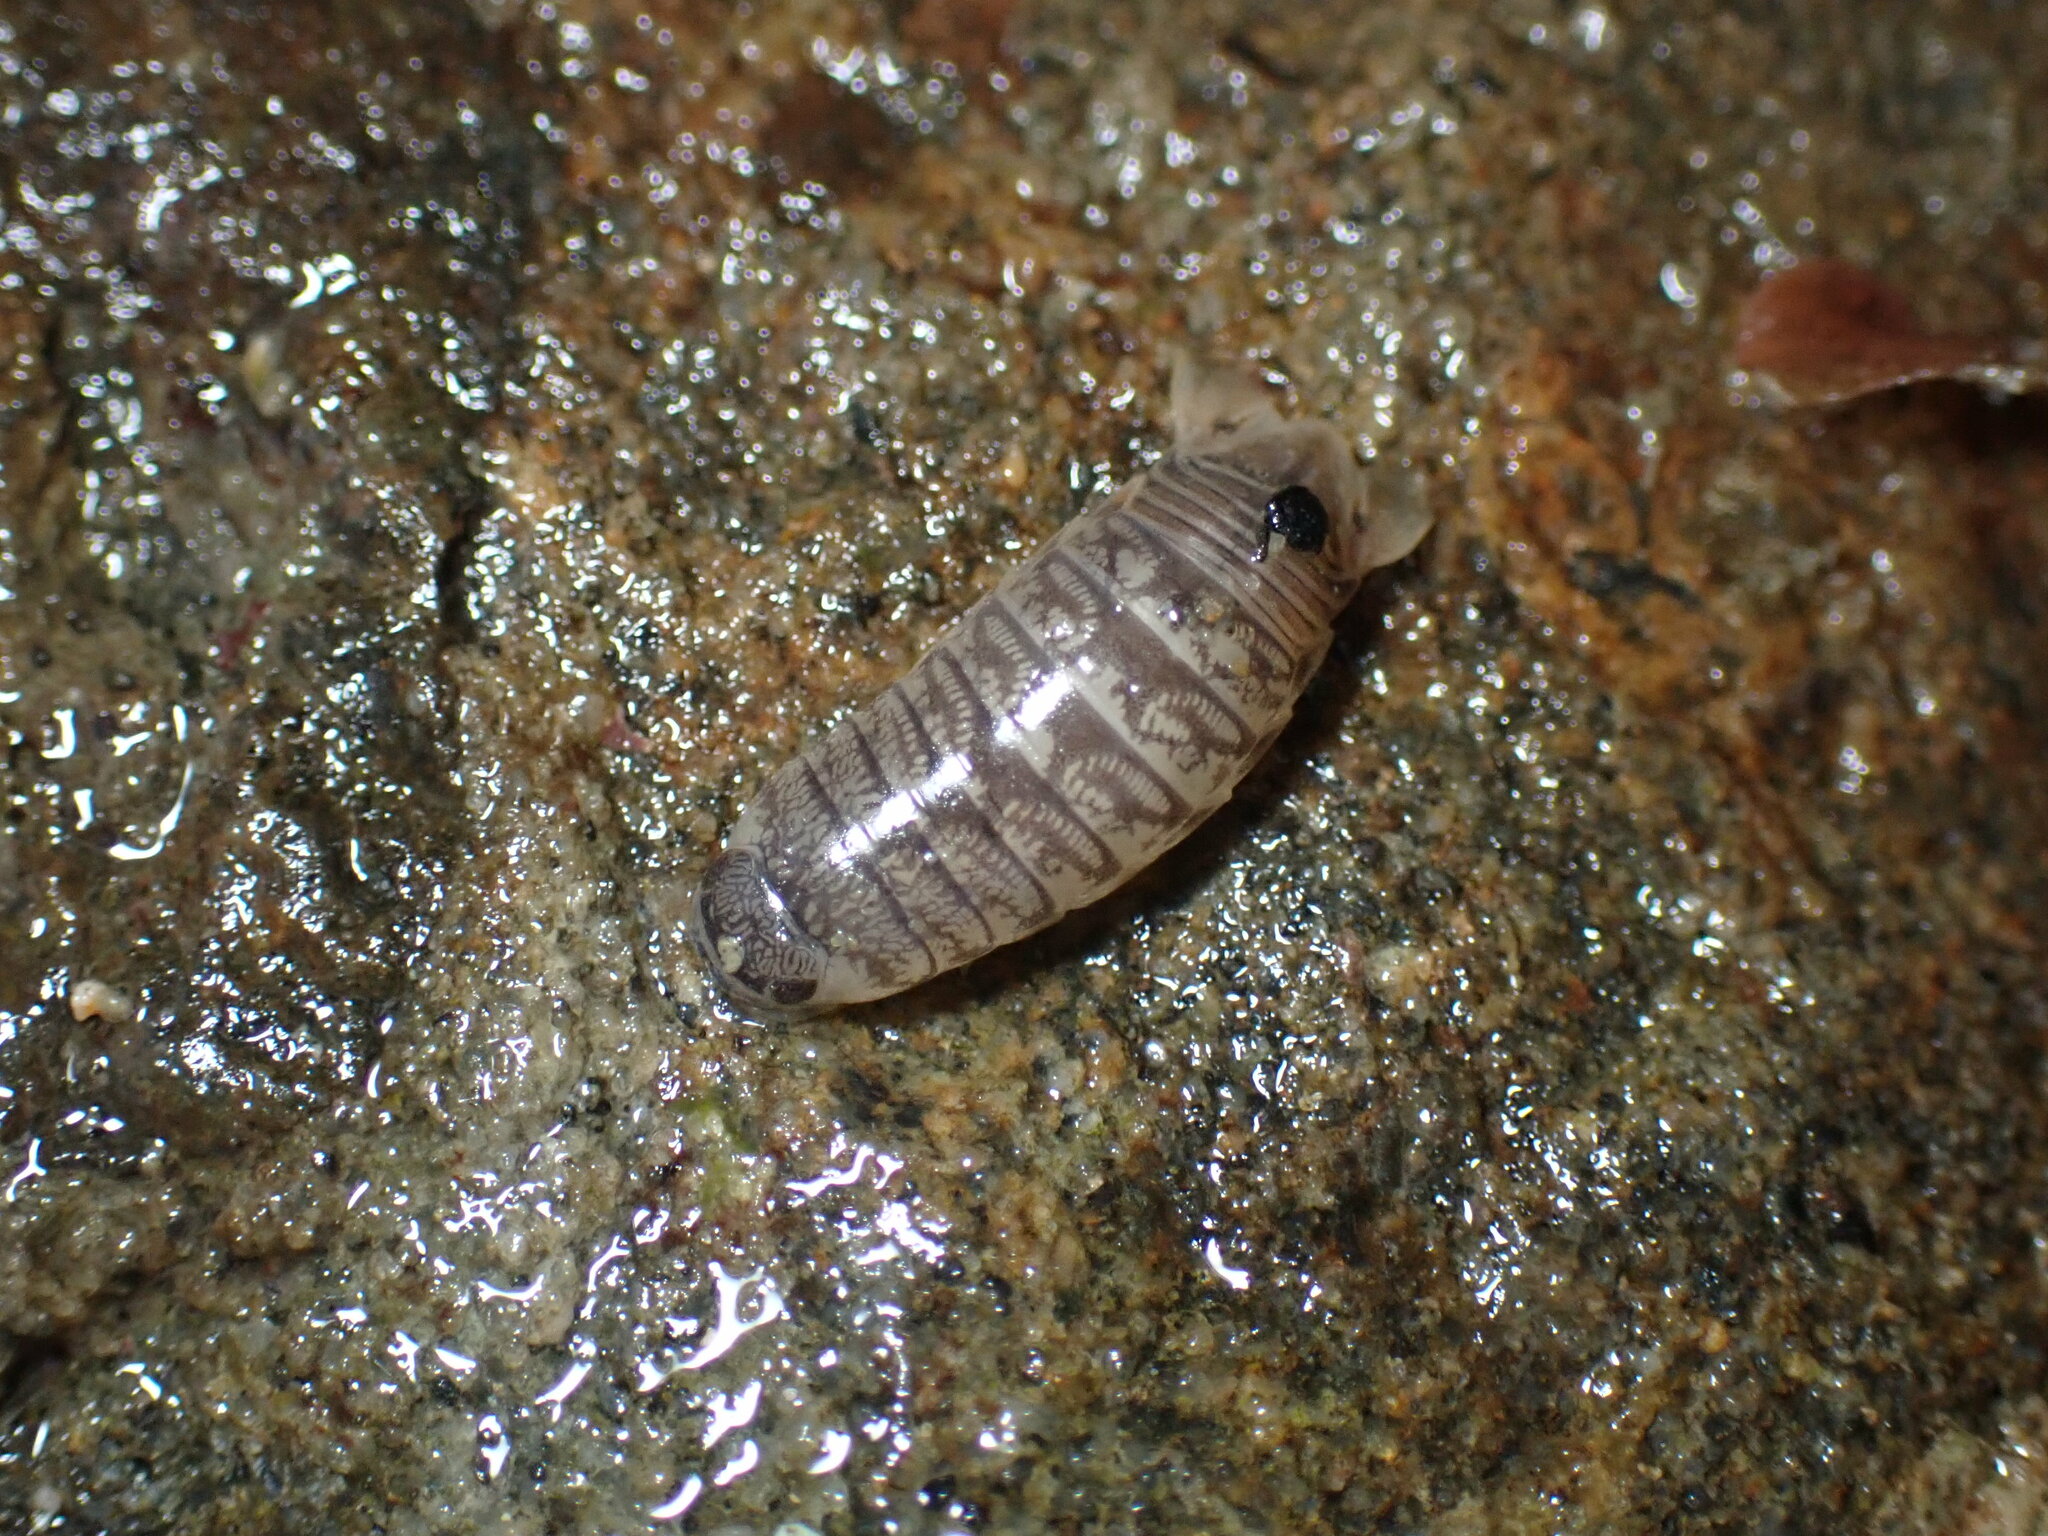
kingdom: Animalia
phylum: Arthropoda
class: Malacostraca
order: Isopoda
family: Cirolanidae
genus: Cirolana
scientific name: Cirolana harfordi
